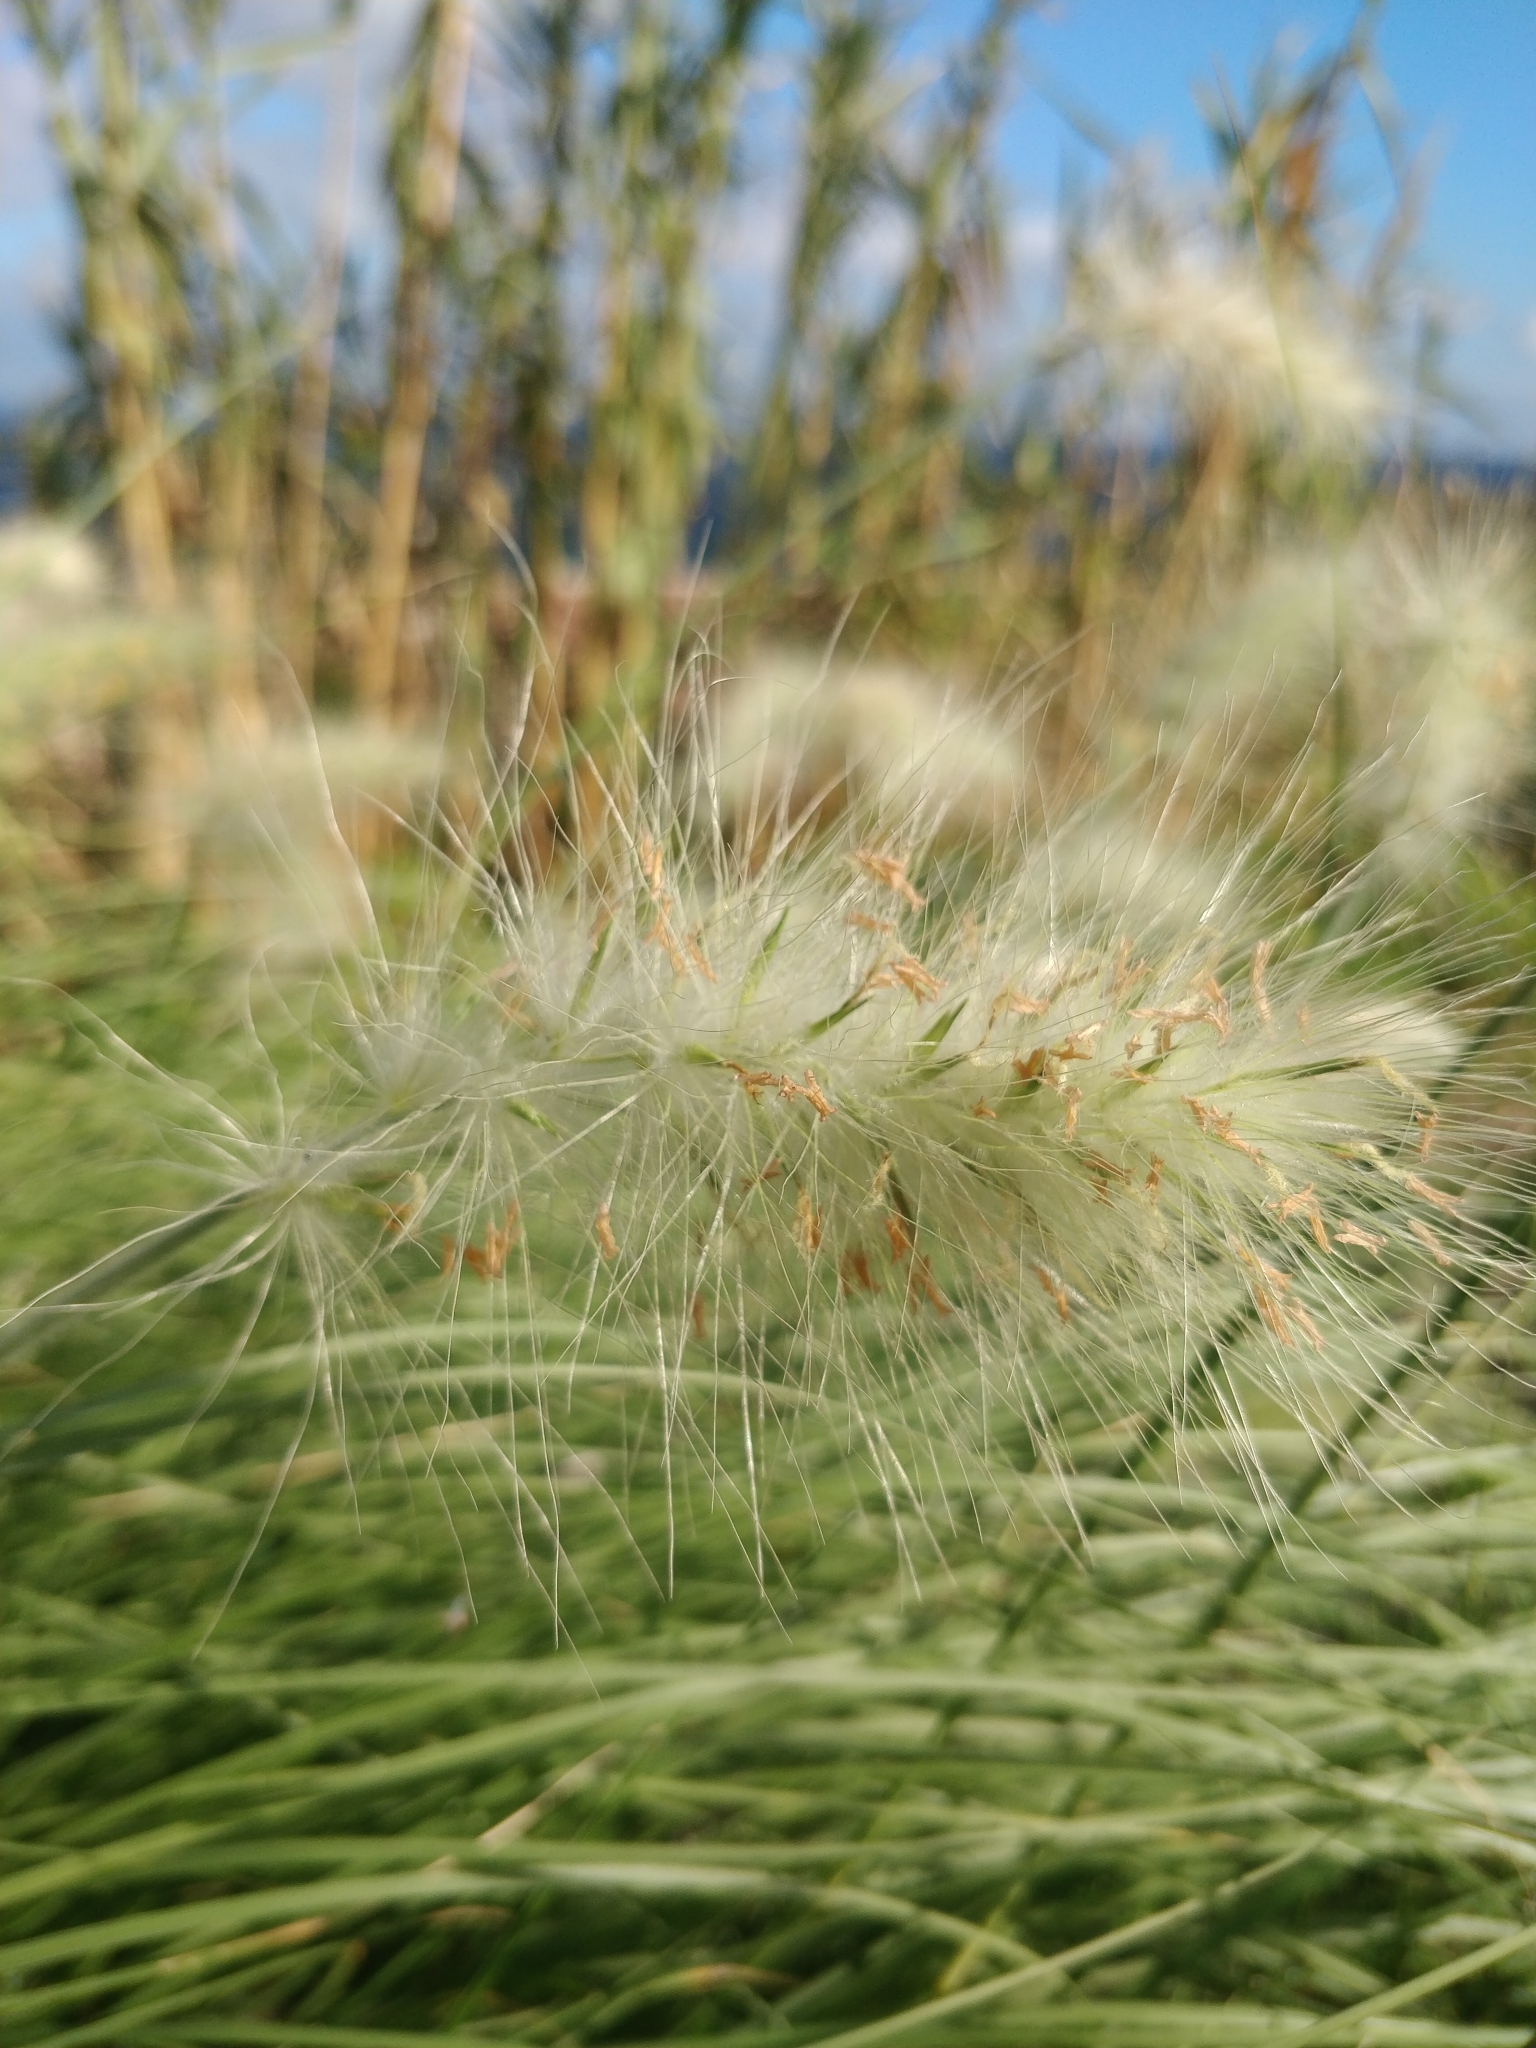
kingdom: Plantae
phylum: Tracheophyta
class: Liliopsida
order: Poales
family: Poaceae
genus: Cenchrus
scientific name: Cenchrus longisetus
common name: Feathertop
